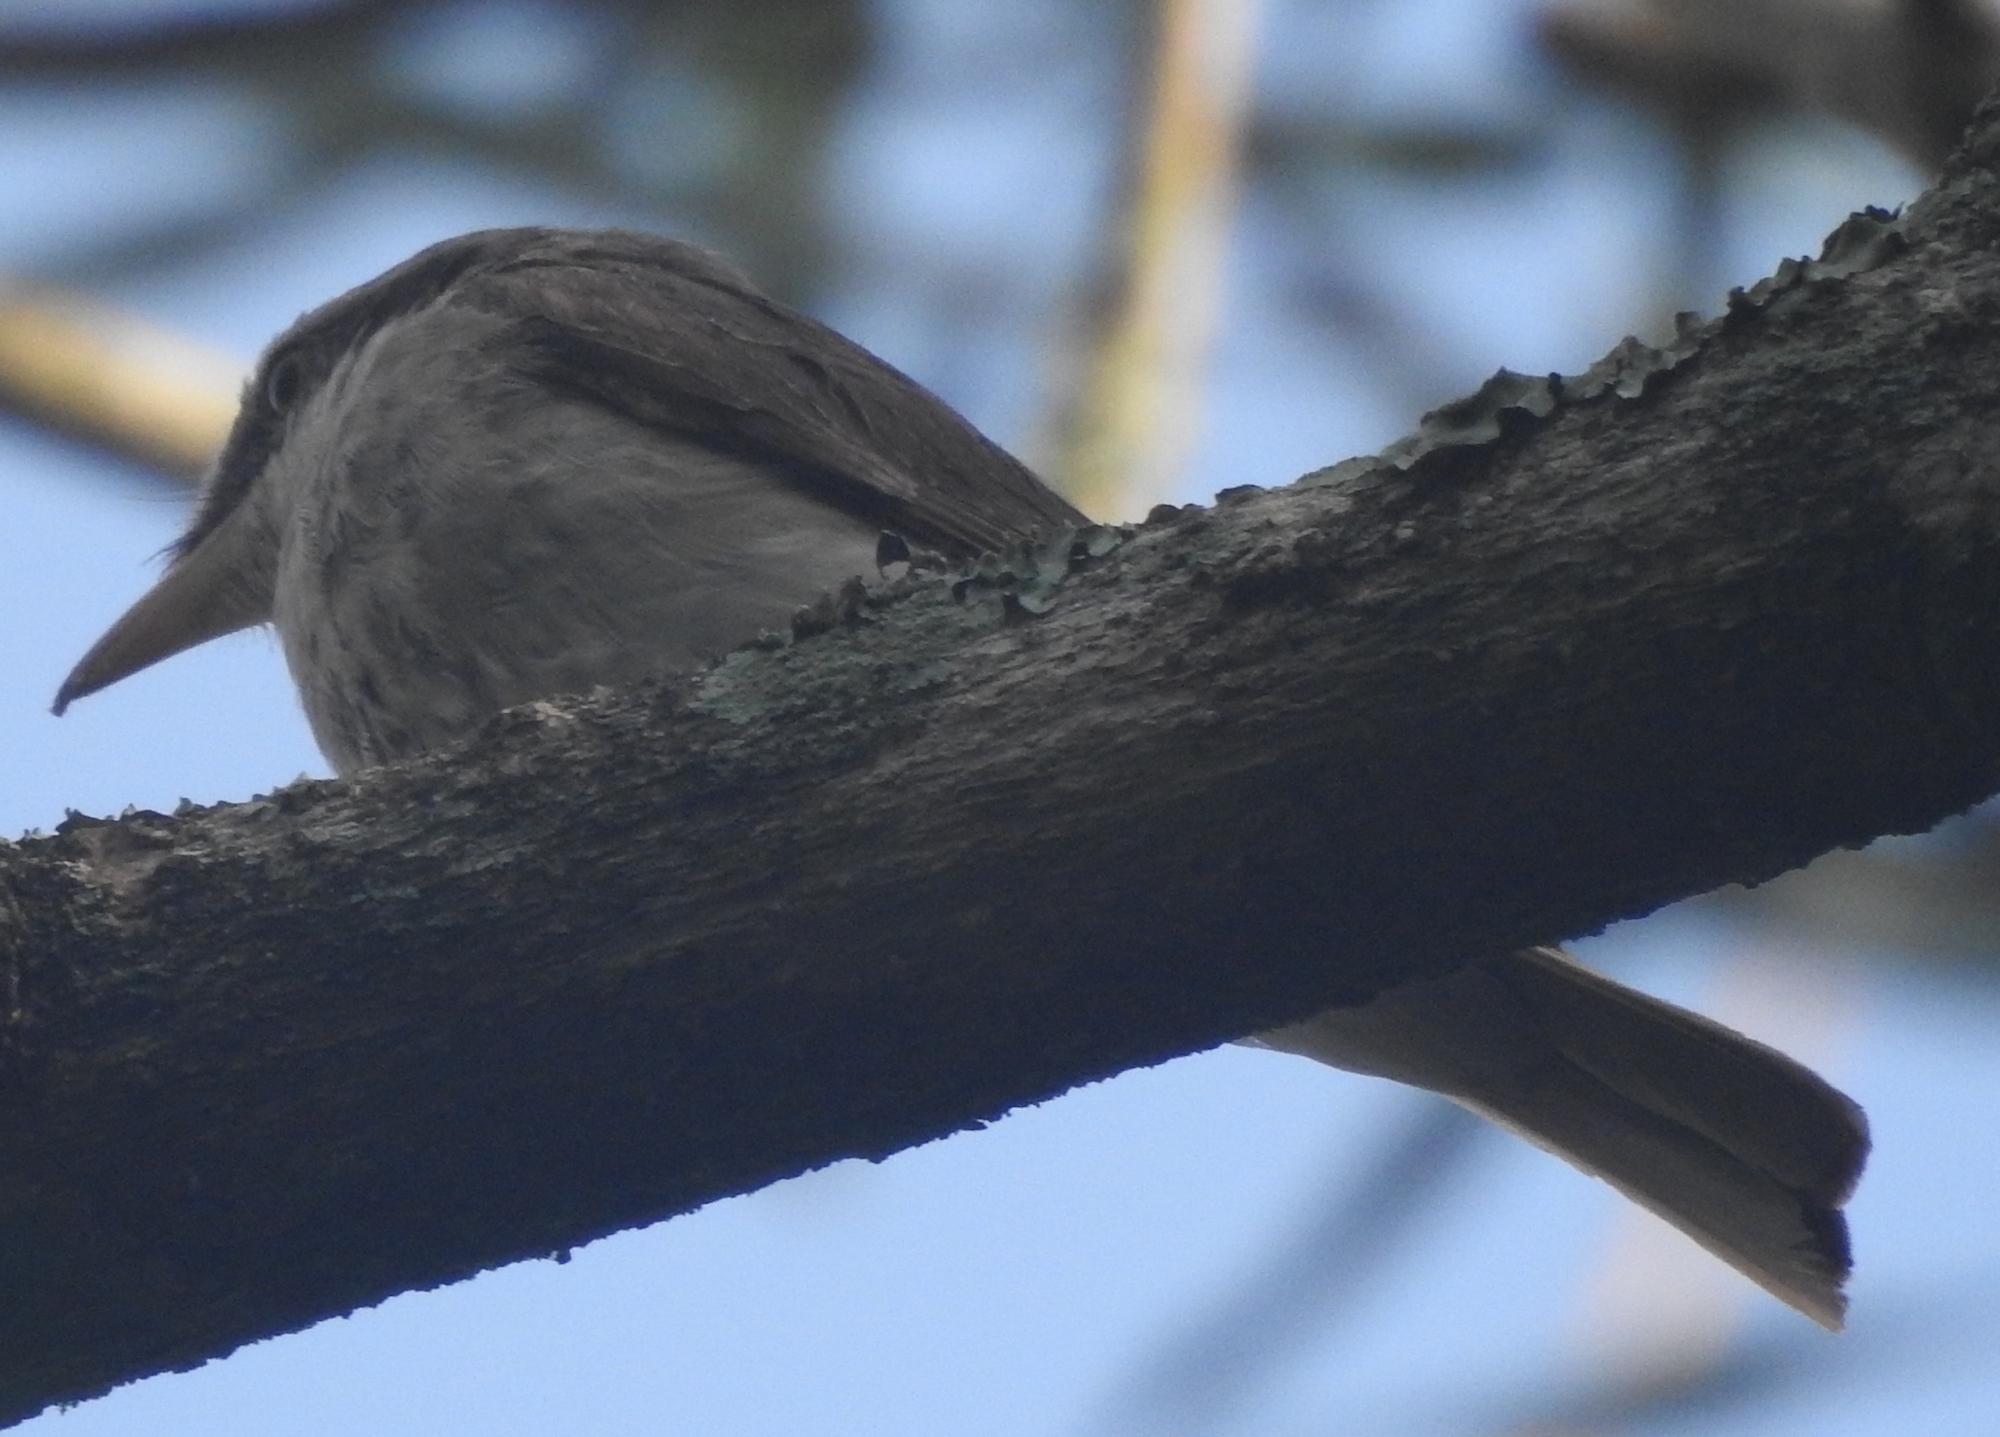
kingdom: Animalia
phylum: Chordata
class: Aves
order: Passeriformes
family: Tephrodornithidae
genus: Tephrodornis
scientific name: Tephrodornis virgatus
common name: Large woodshrike
